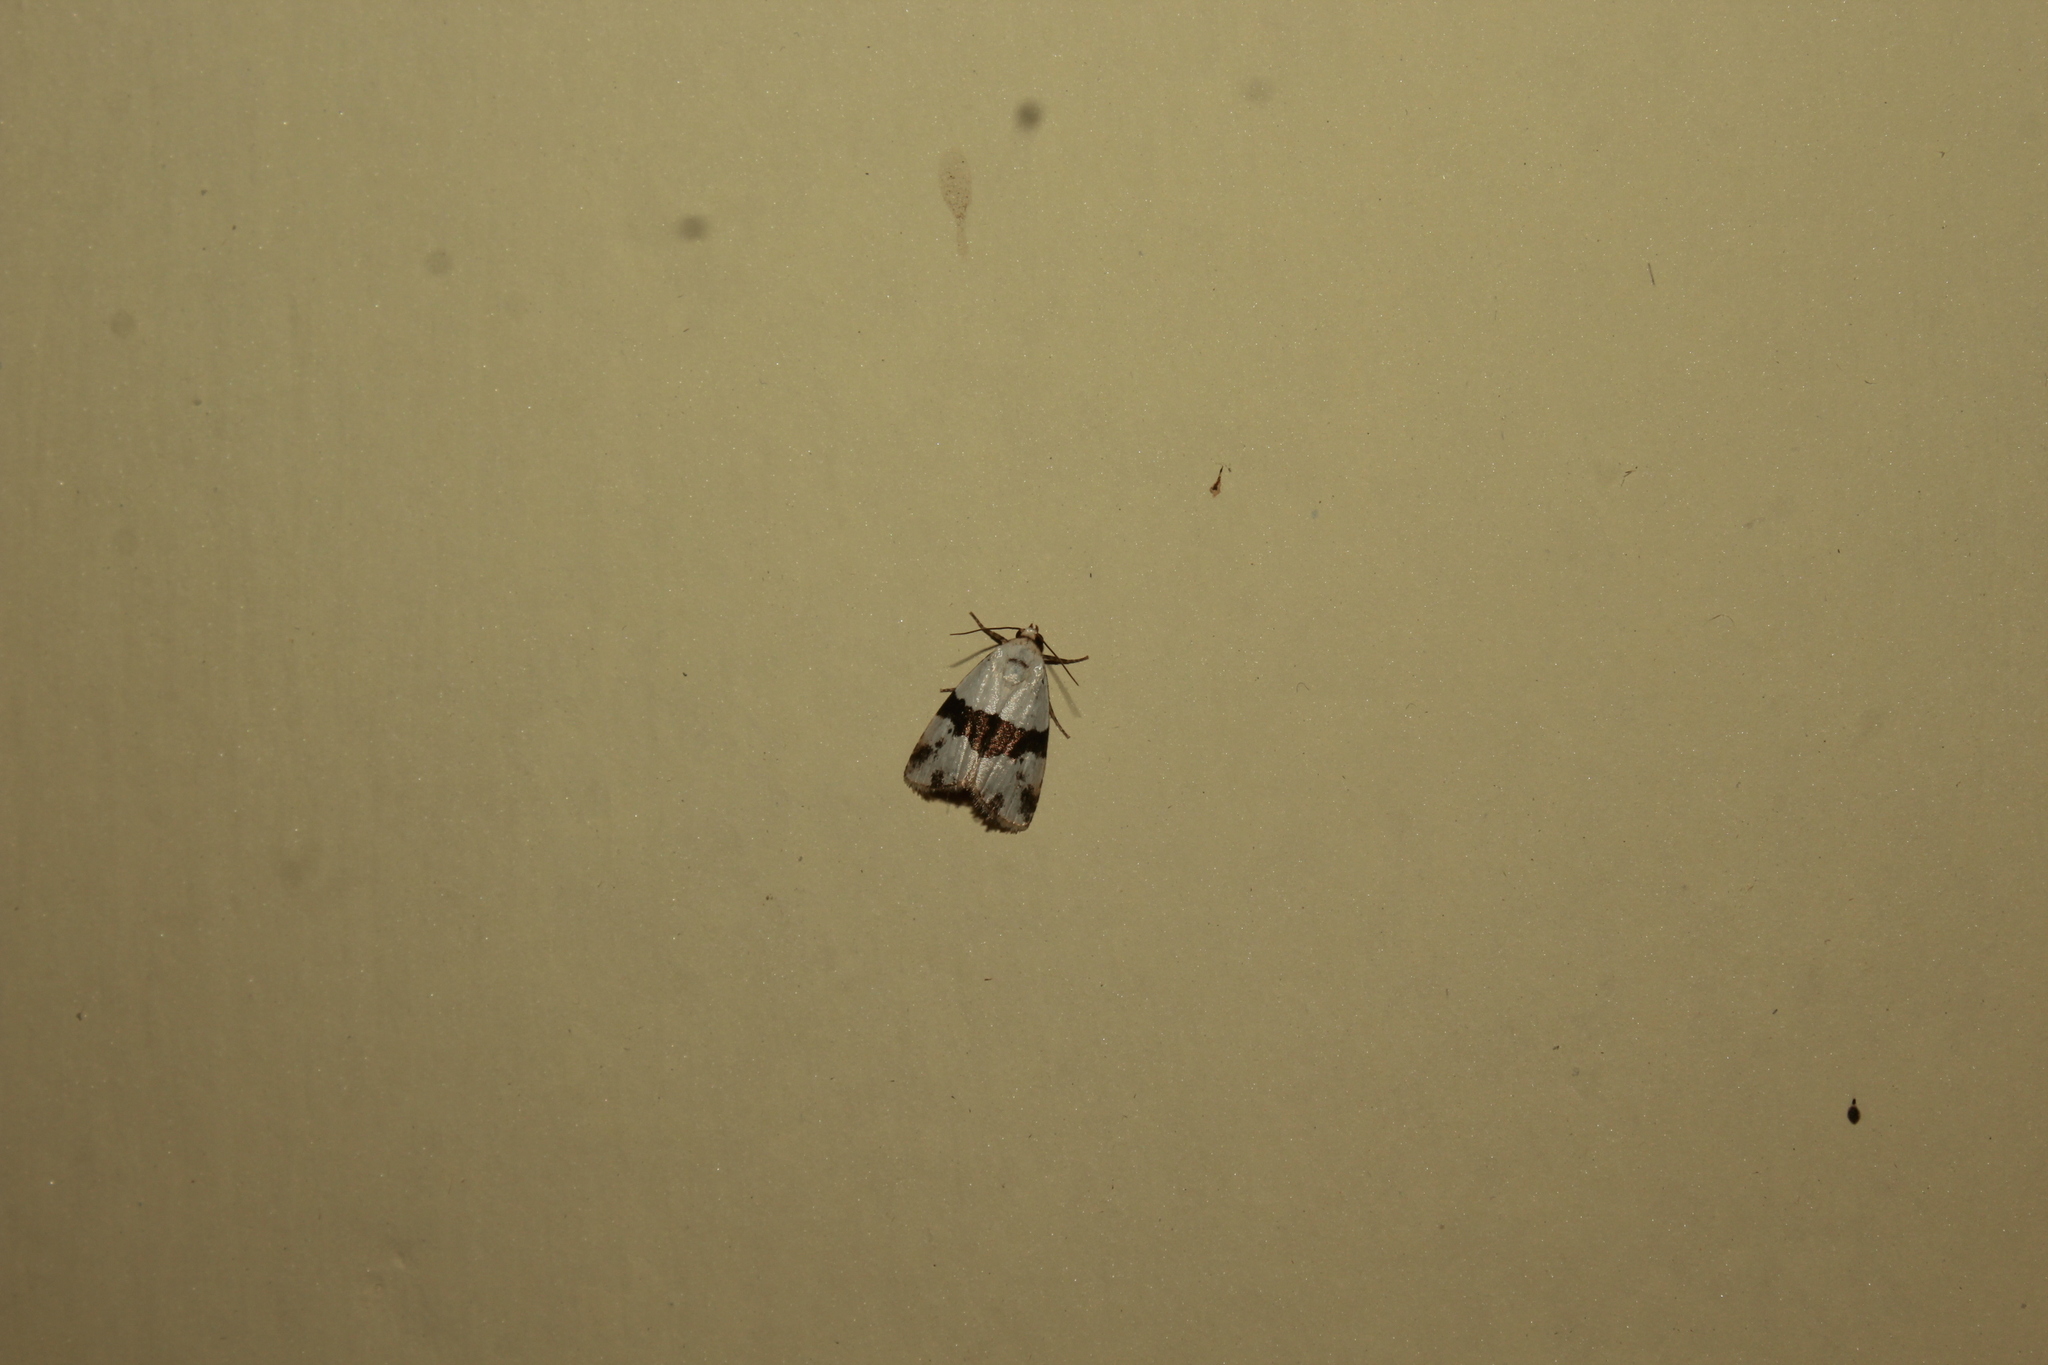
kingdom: Animalia
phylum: Arthropoda
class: Insecta
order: Lepidoptera
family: Noctuidae
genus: Maliattha
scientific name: Maliattha ruptifascia
